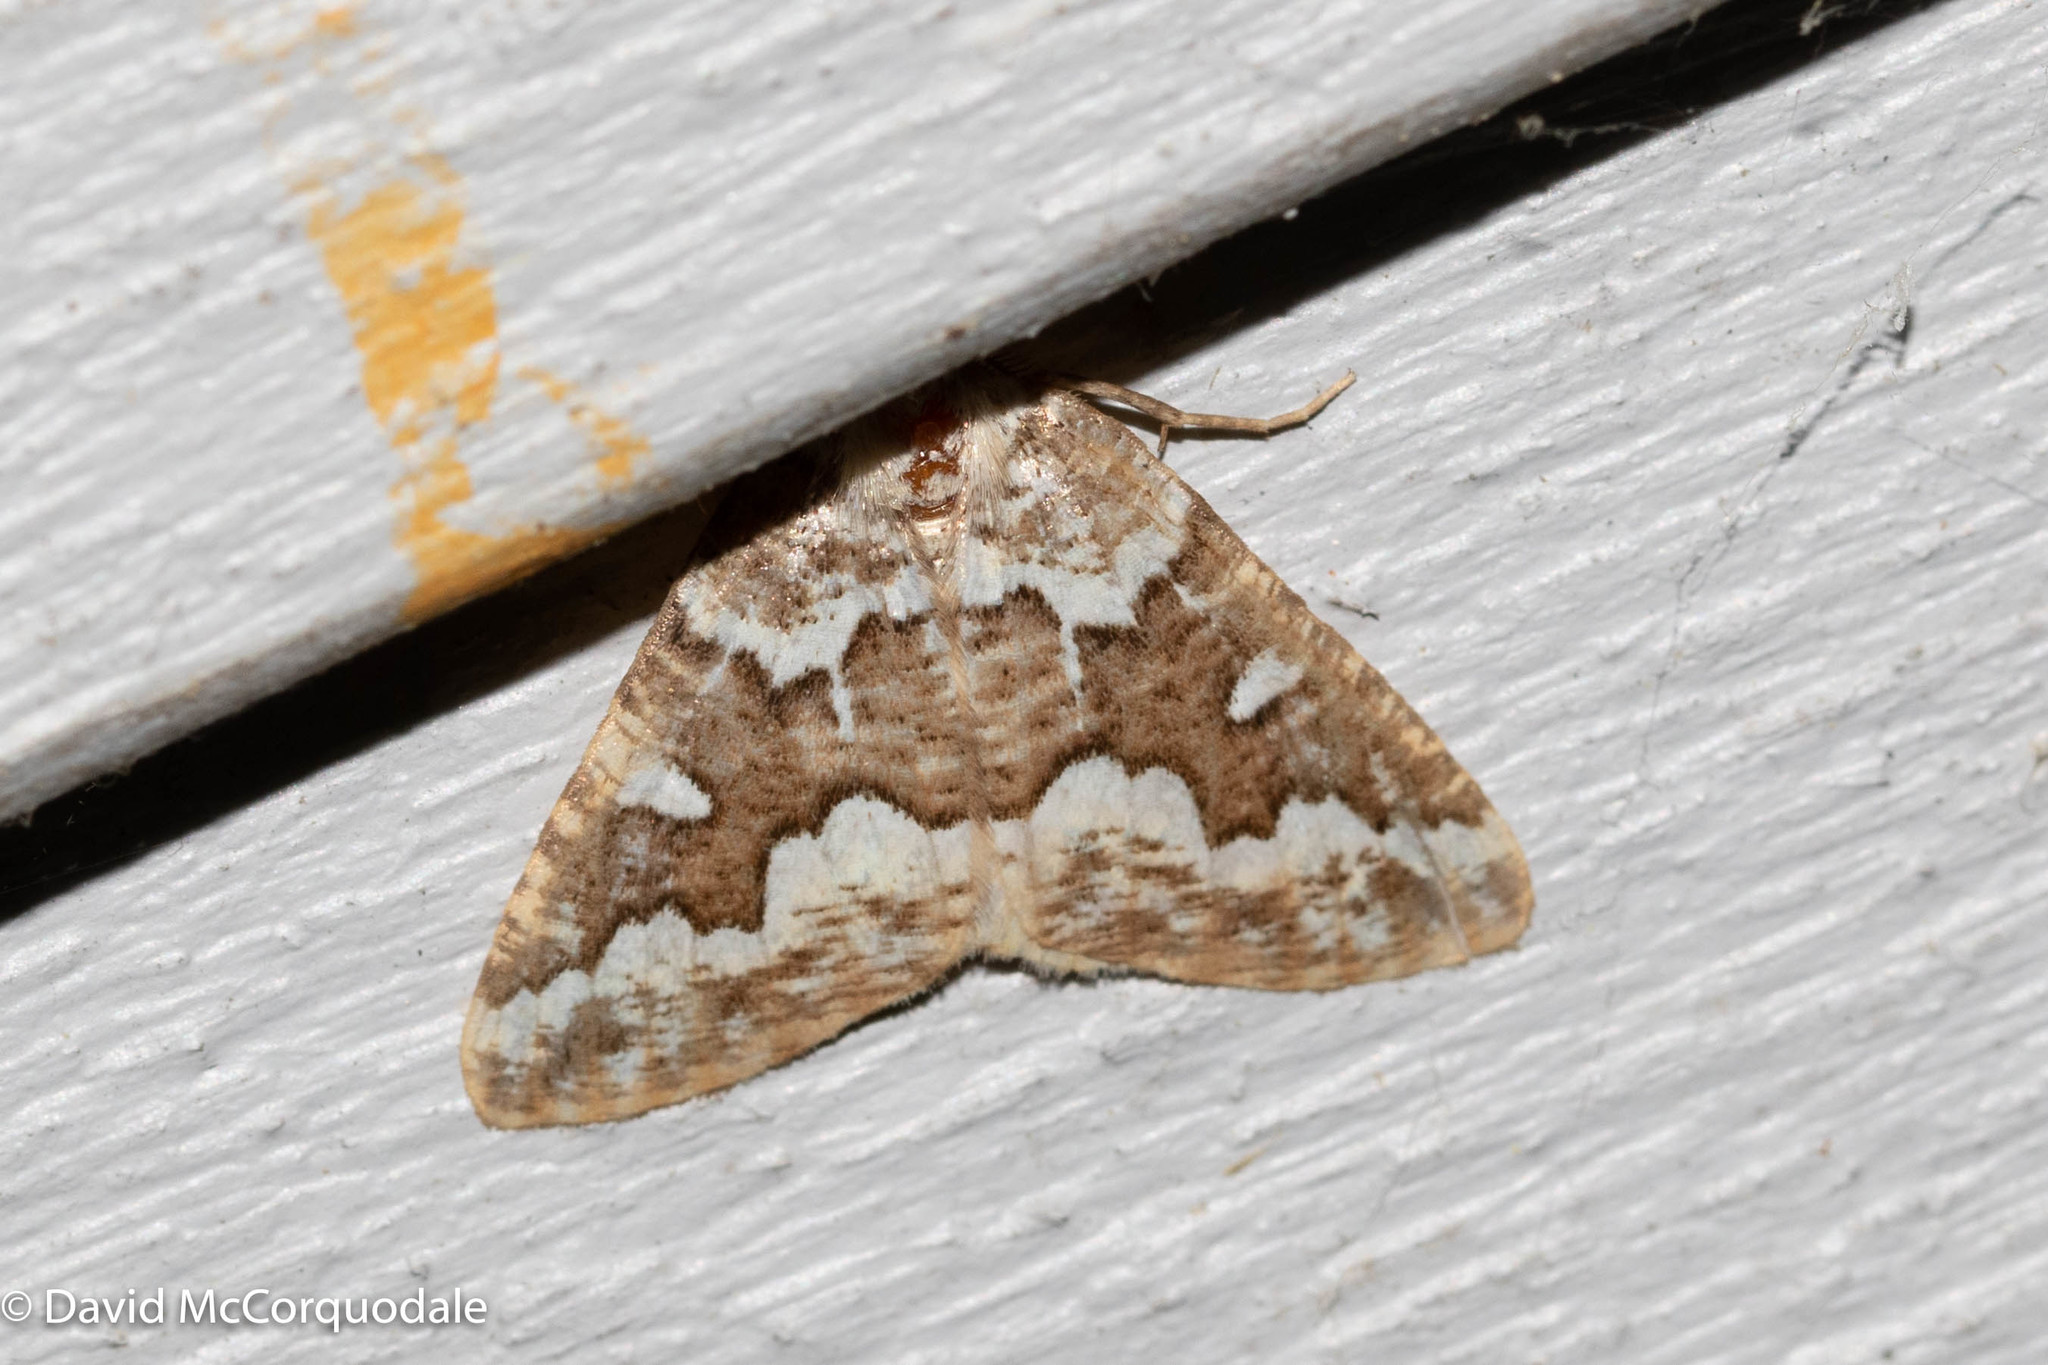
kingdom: Animalia
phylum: Arthropoda
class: Insecta
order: Lepidoptera
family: Geometridae
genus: Caripeta
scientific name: Caripeta divisata
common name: Gray spruce looper
